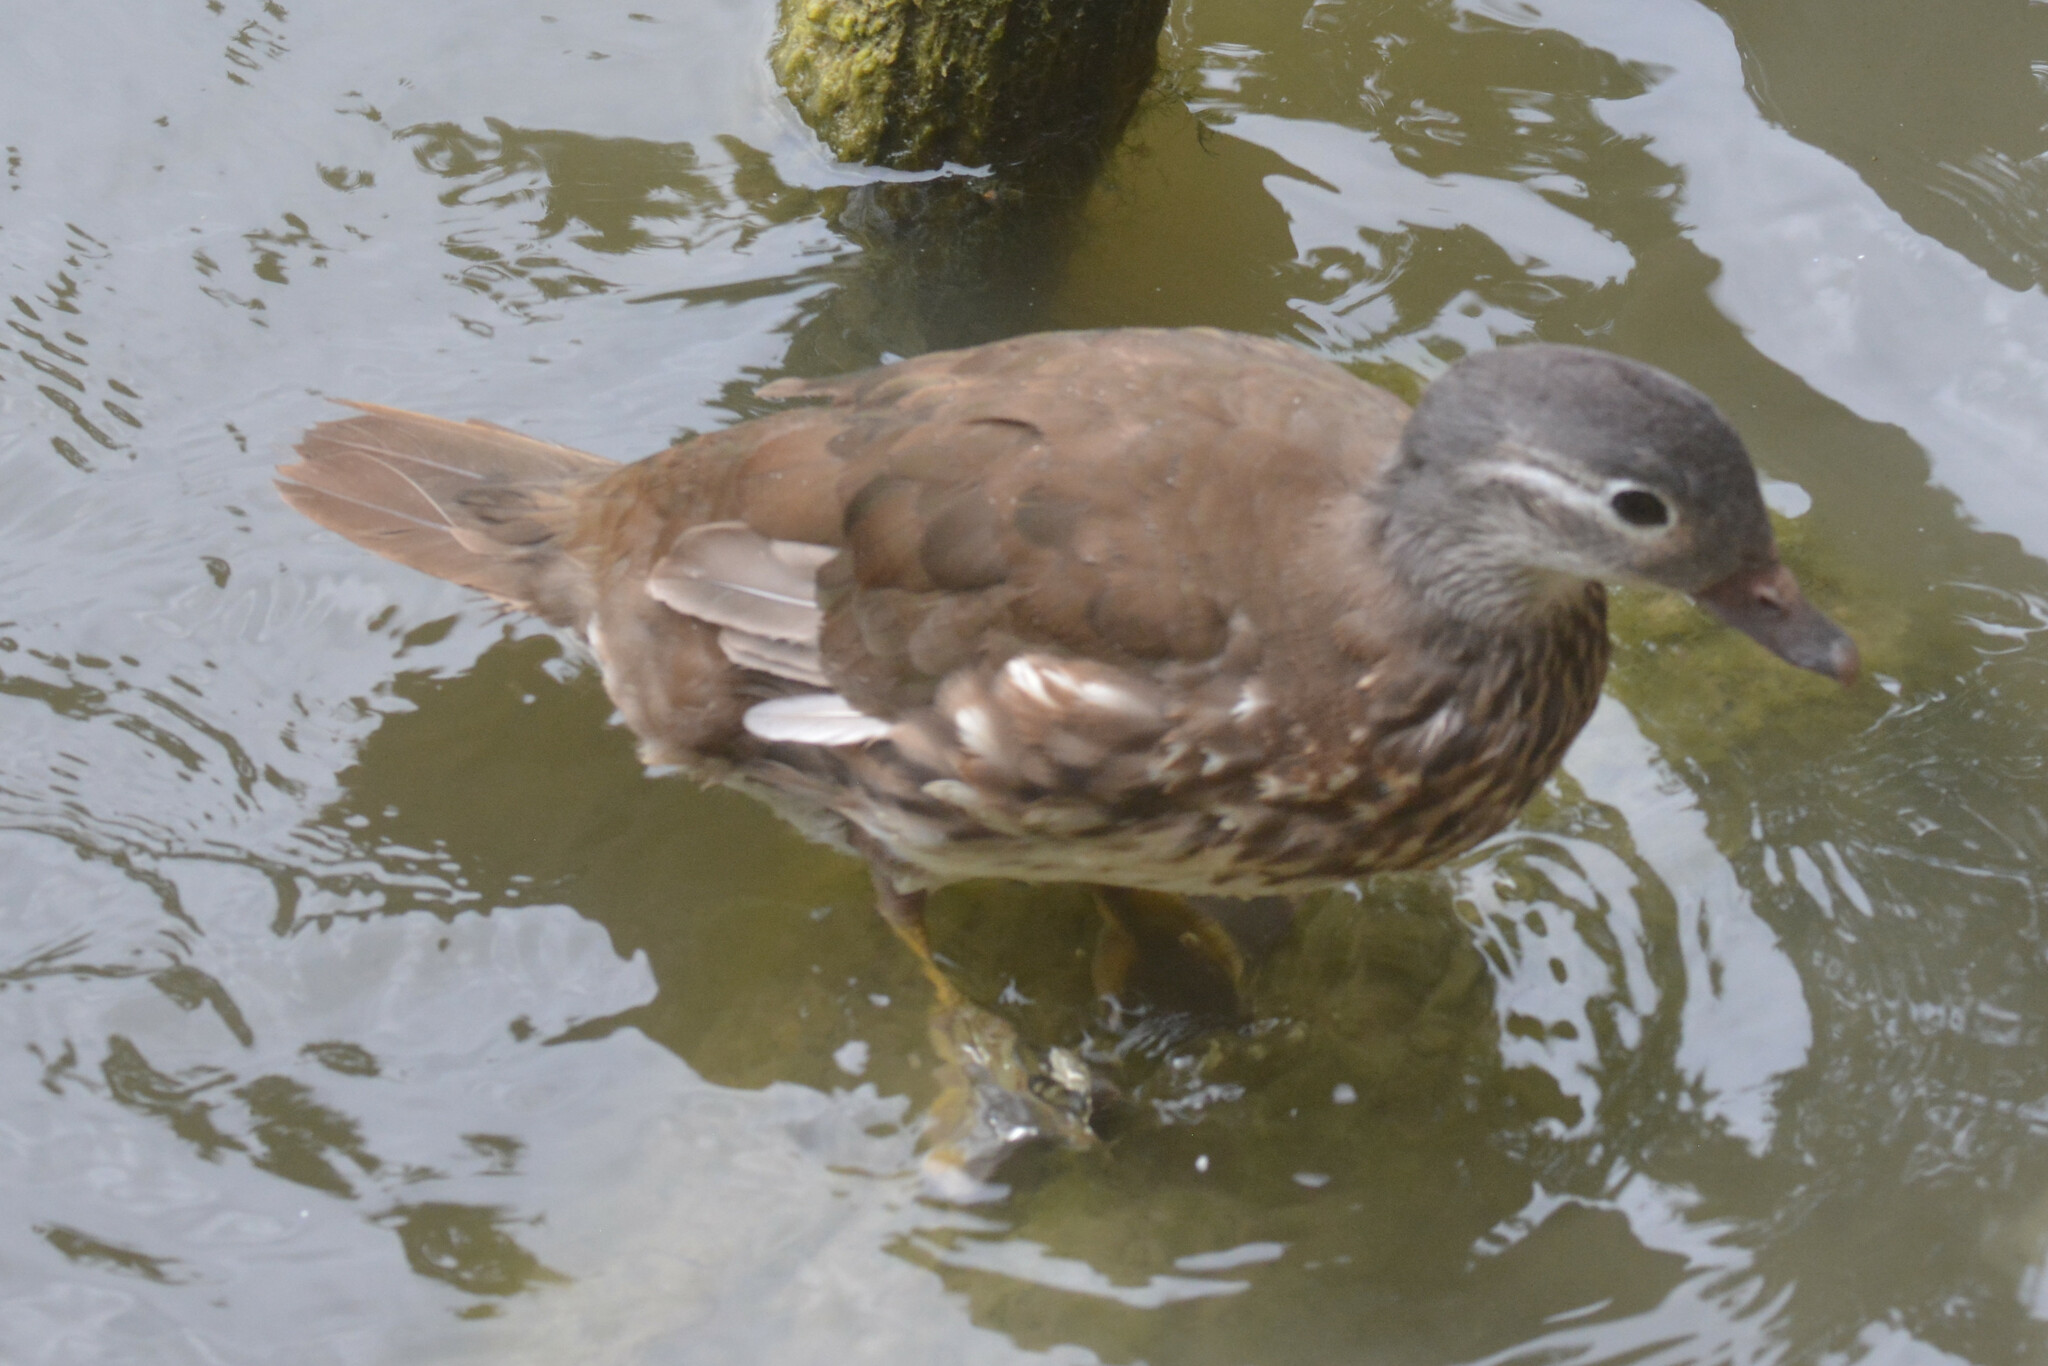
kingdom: Animalia
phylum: Chordata
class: Aves
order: Anseriformes
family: Anatidae
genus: Aix
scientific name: Aix galericulata
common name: Mandarin duck
